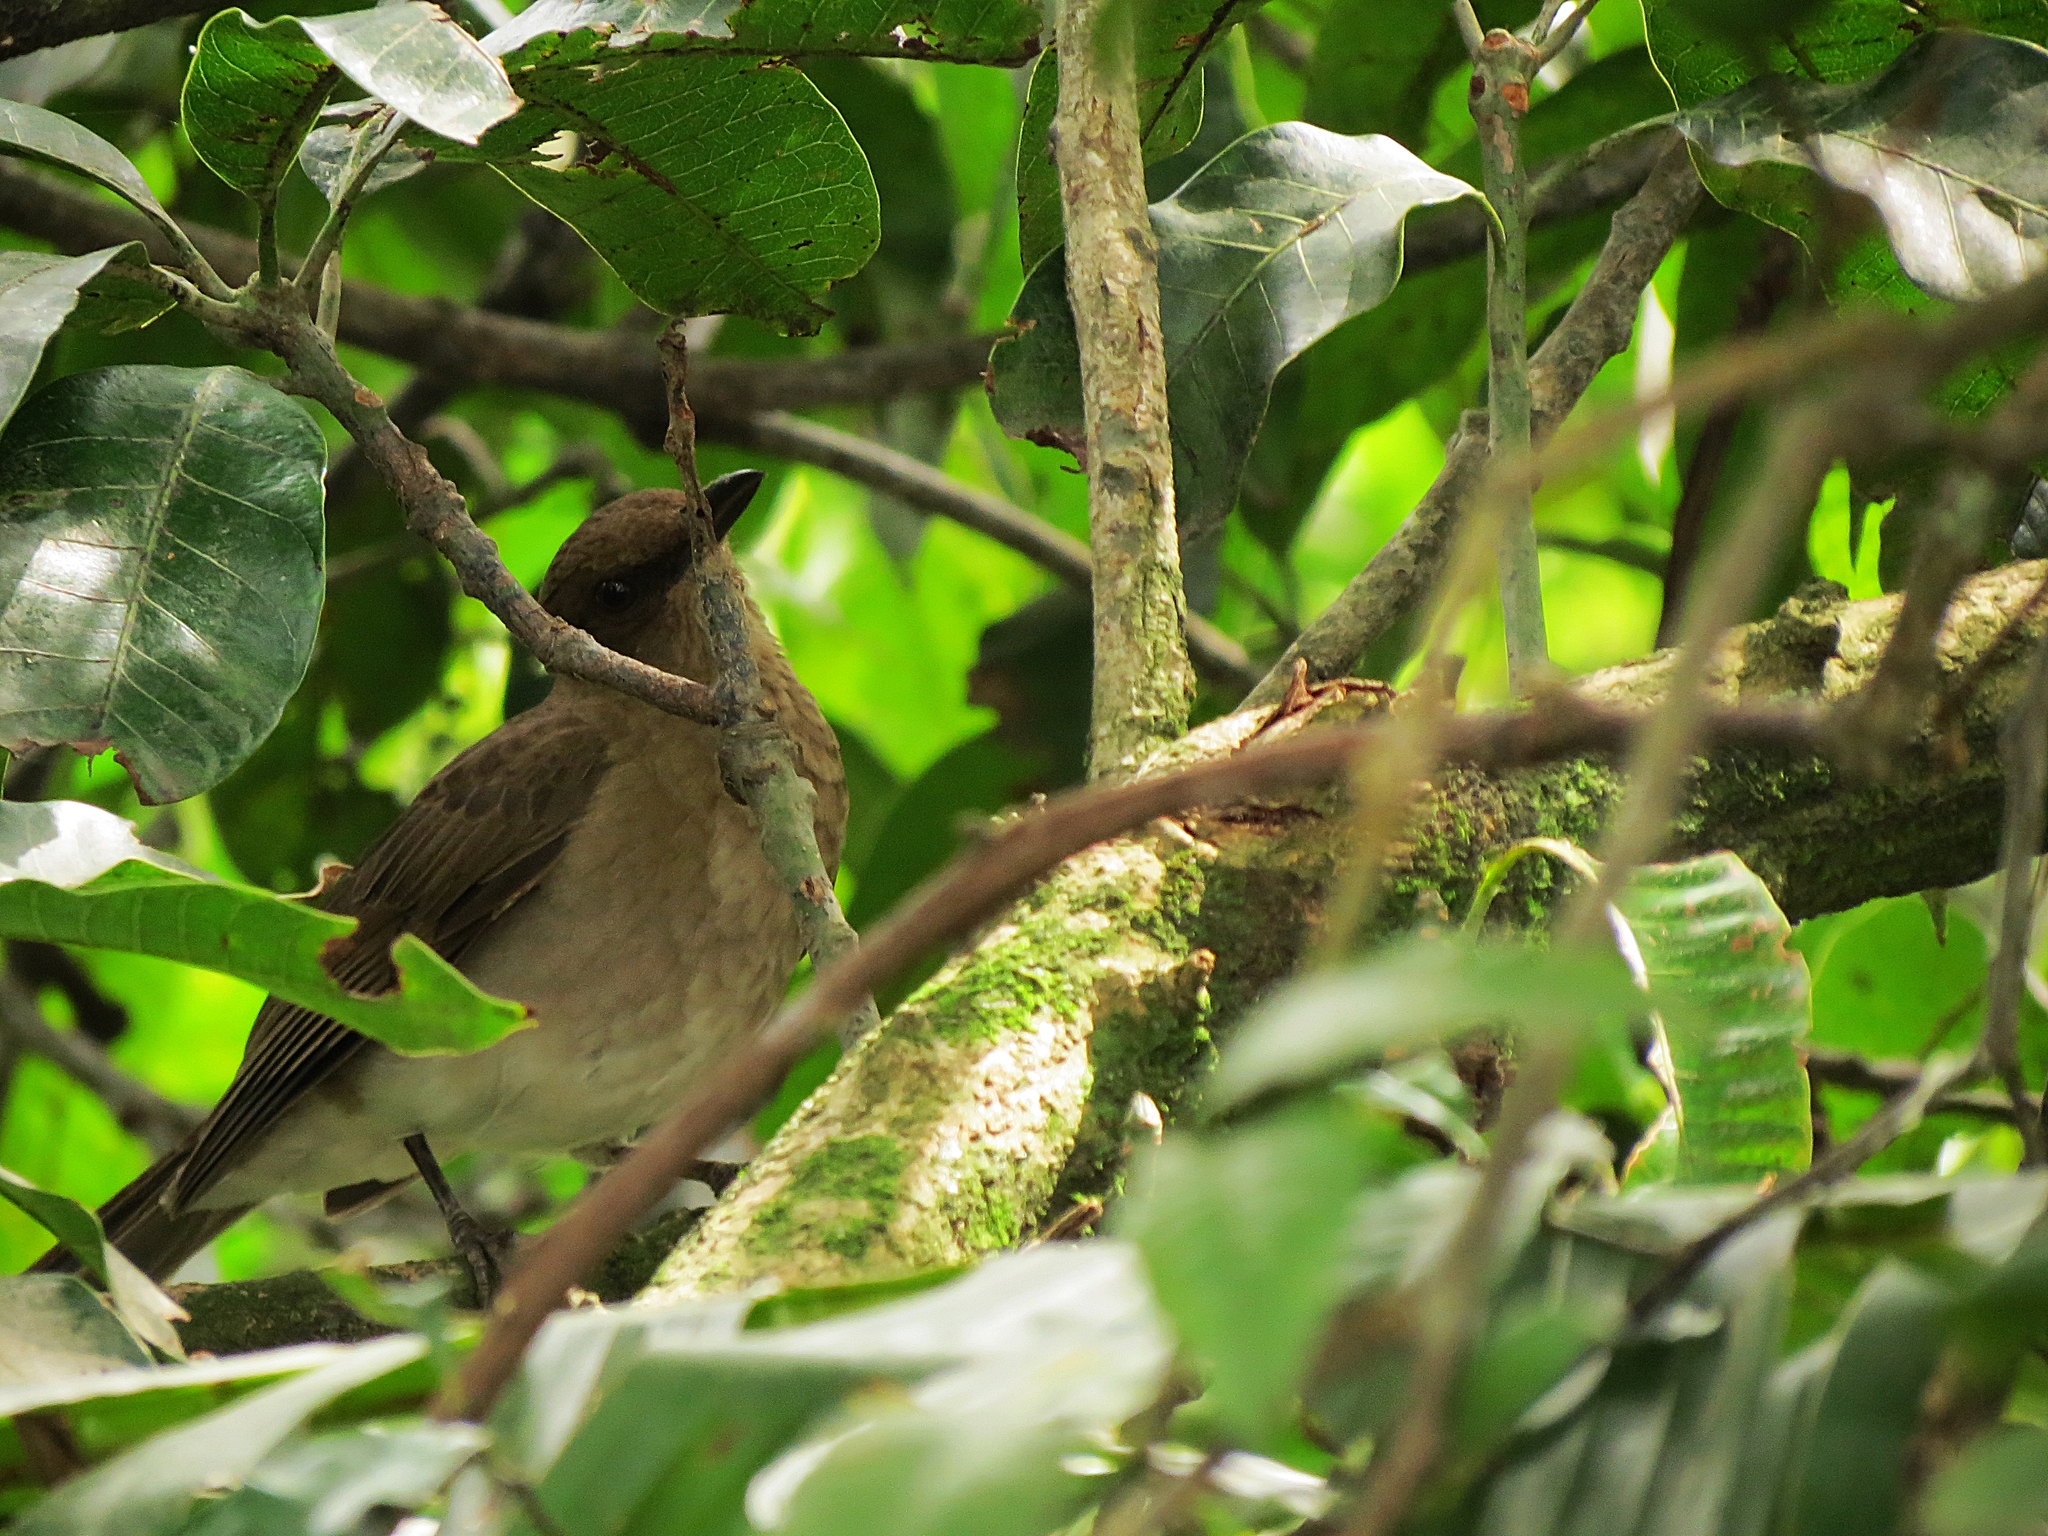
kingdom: Animalia
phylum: Chordata
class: Aves
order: Passeriformes
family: Turdidae
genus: Turdus
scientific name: Turdus ignobilis
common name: Black-billed thrush
